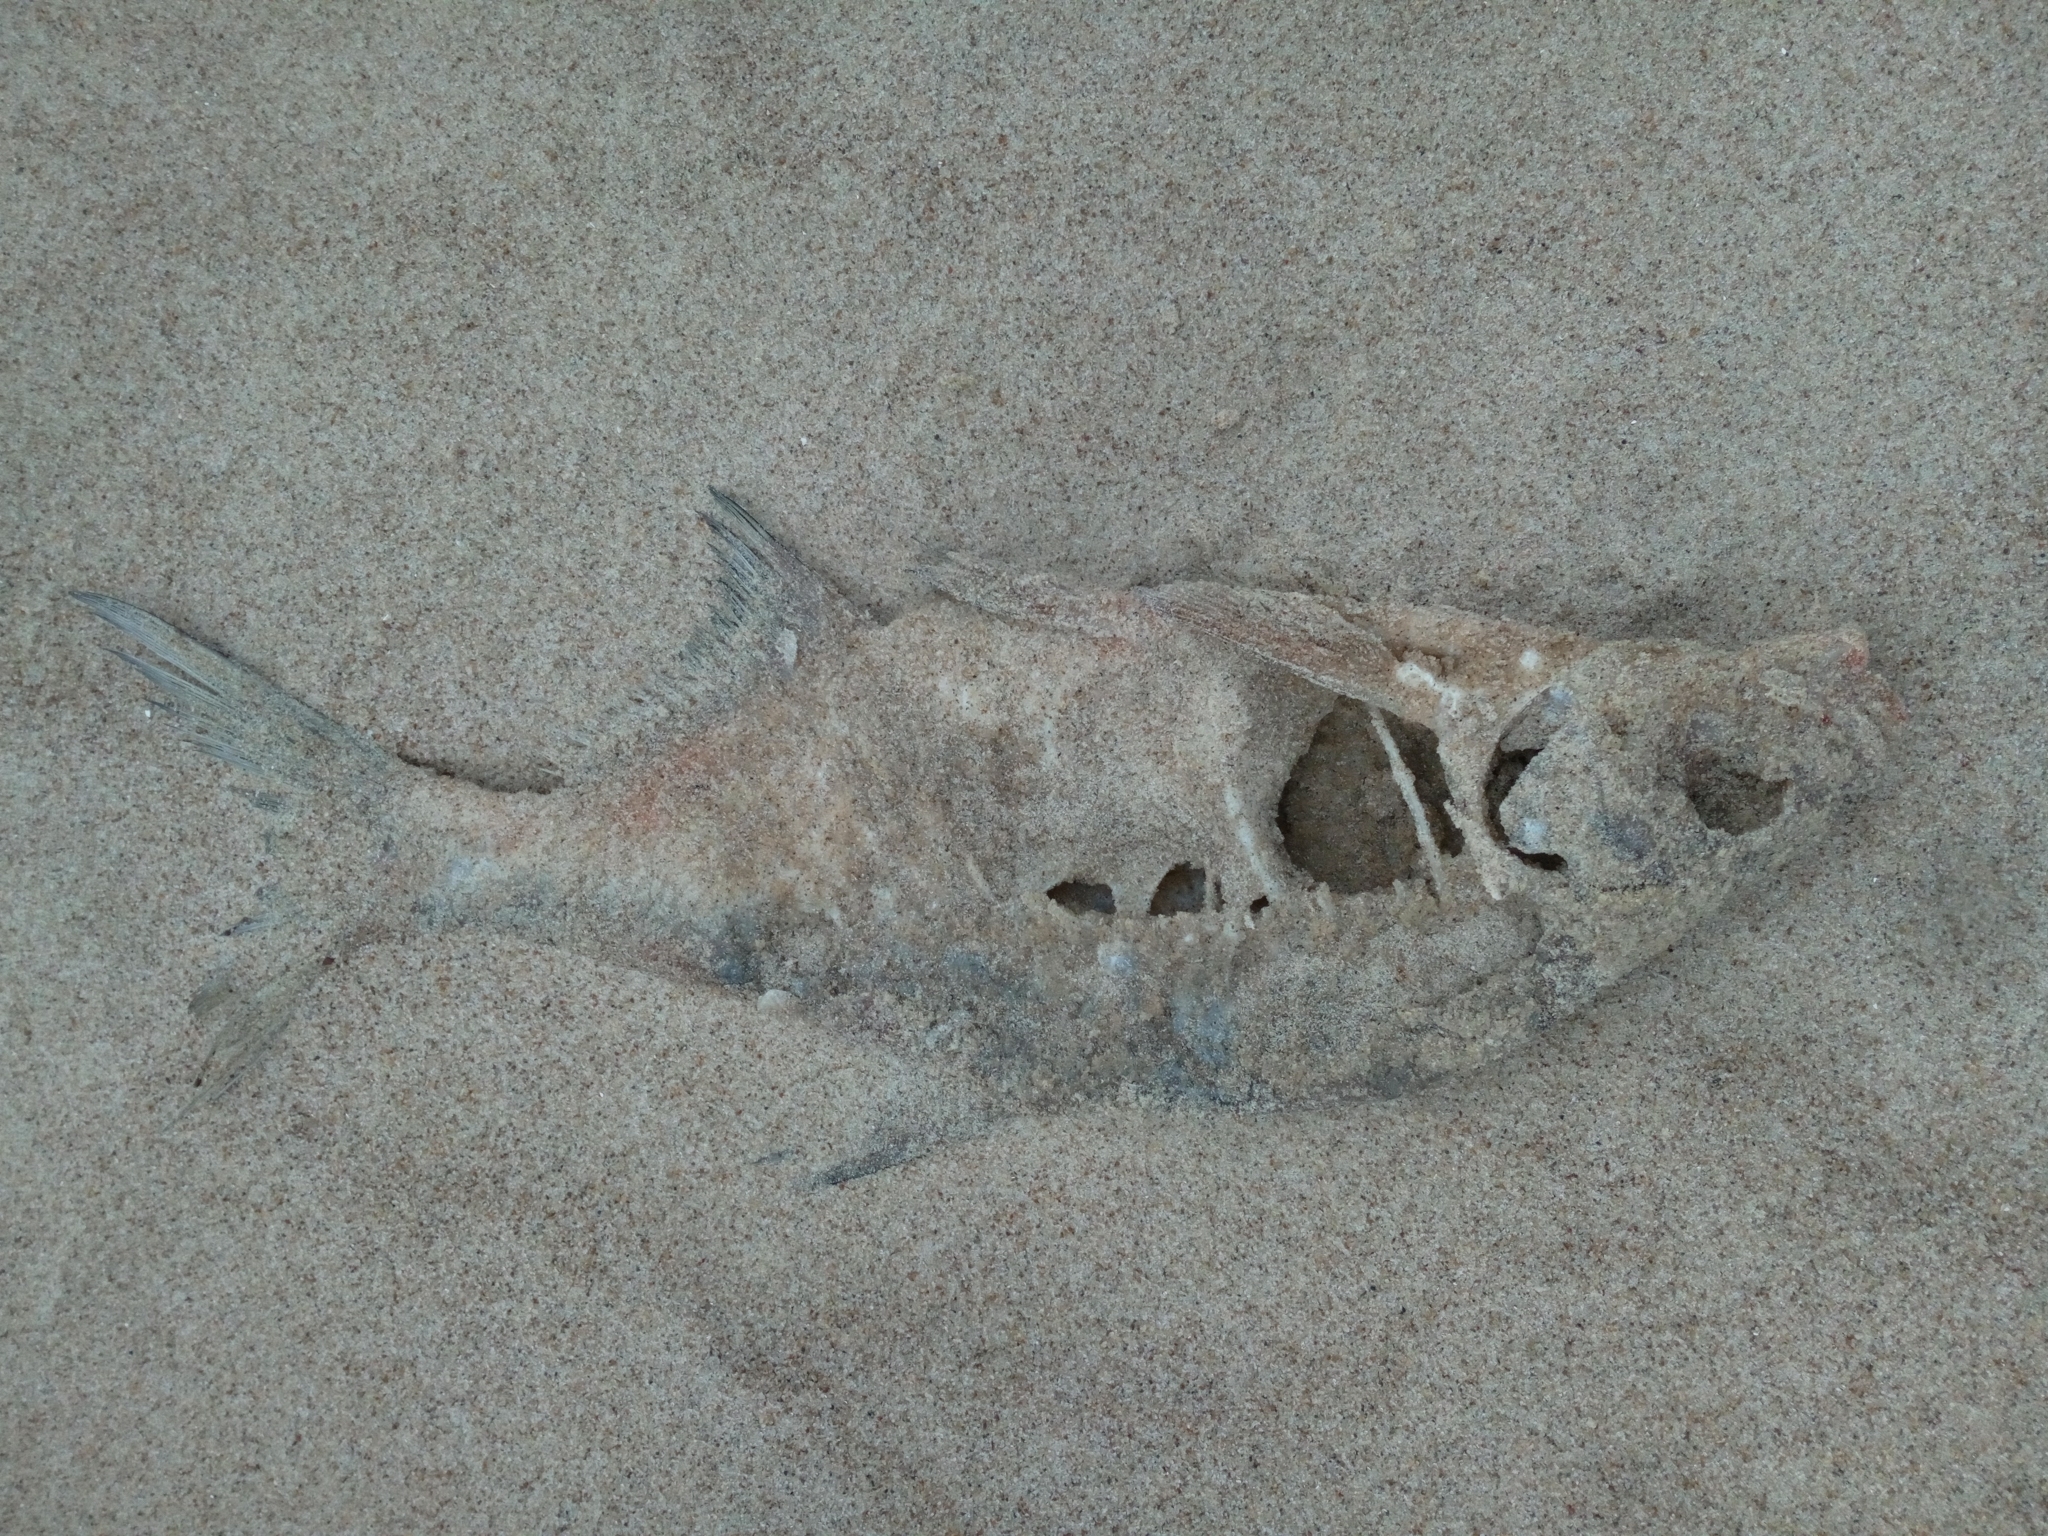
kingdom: Animalia
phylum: Chordata
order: Cypriniformes
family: Cyprinidae
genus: Abramis
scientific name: Abramis brama
